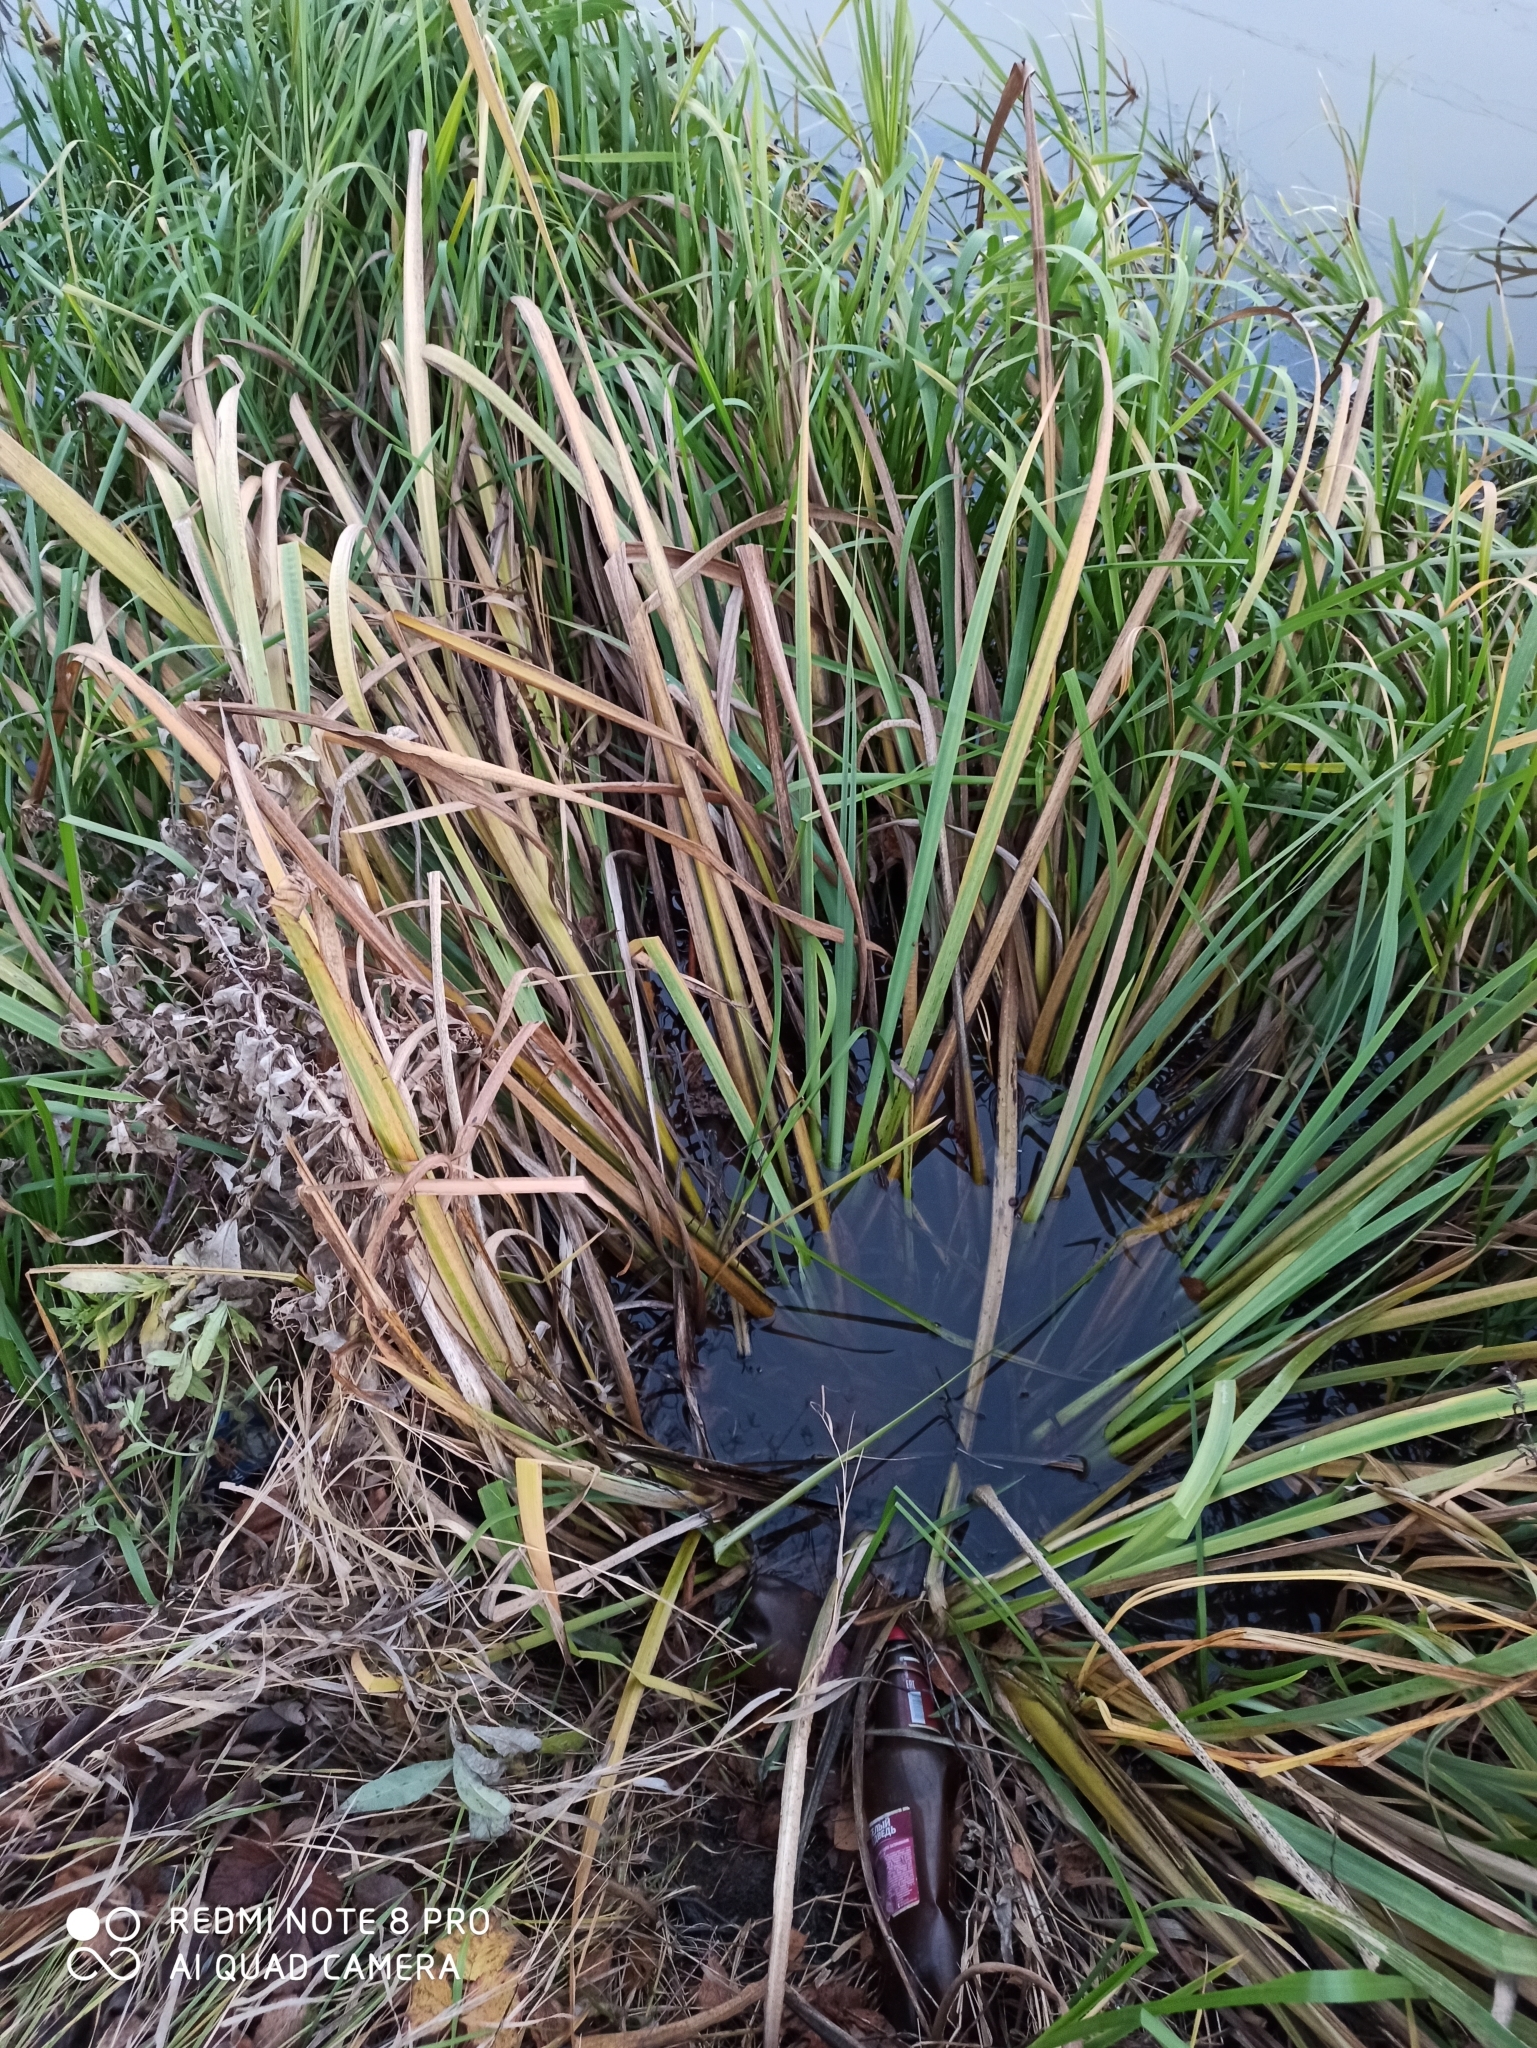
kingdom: Plantae
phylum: Tracheophyta
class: Liliopsida
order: Asparagales
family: Iridaceae
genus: Iris
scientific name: Iris pseudacorus
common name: Yellow flag
